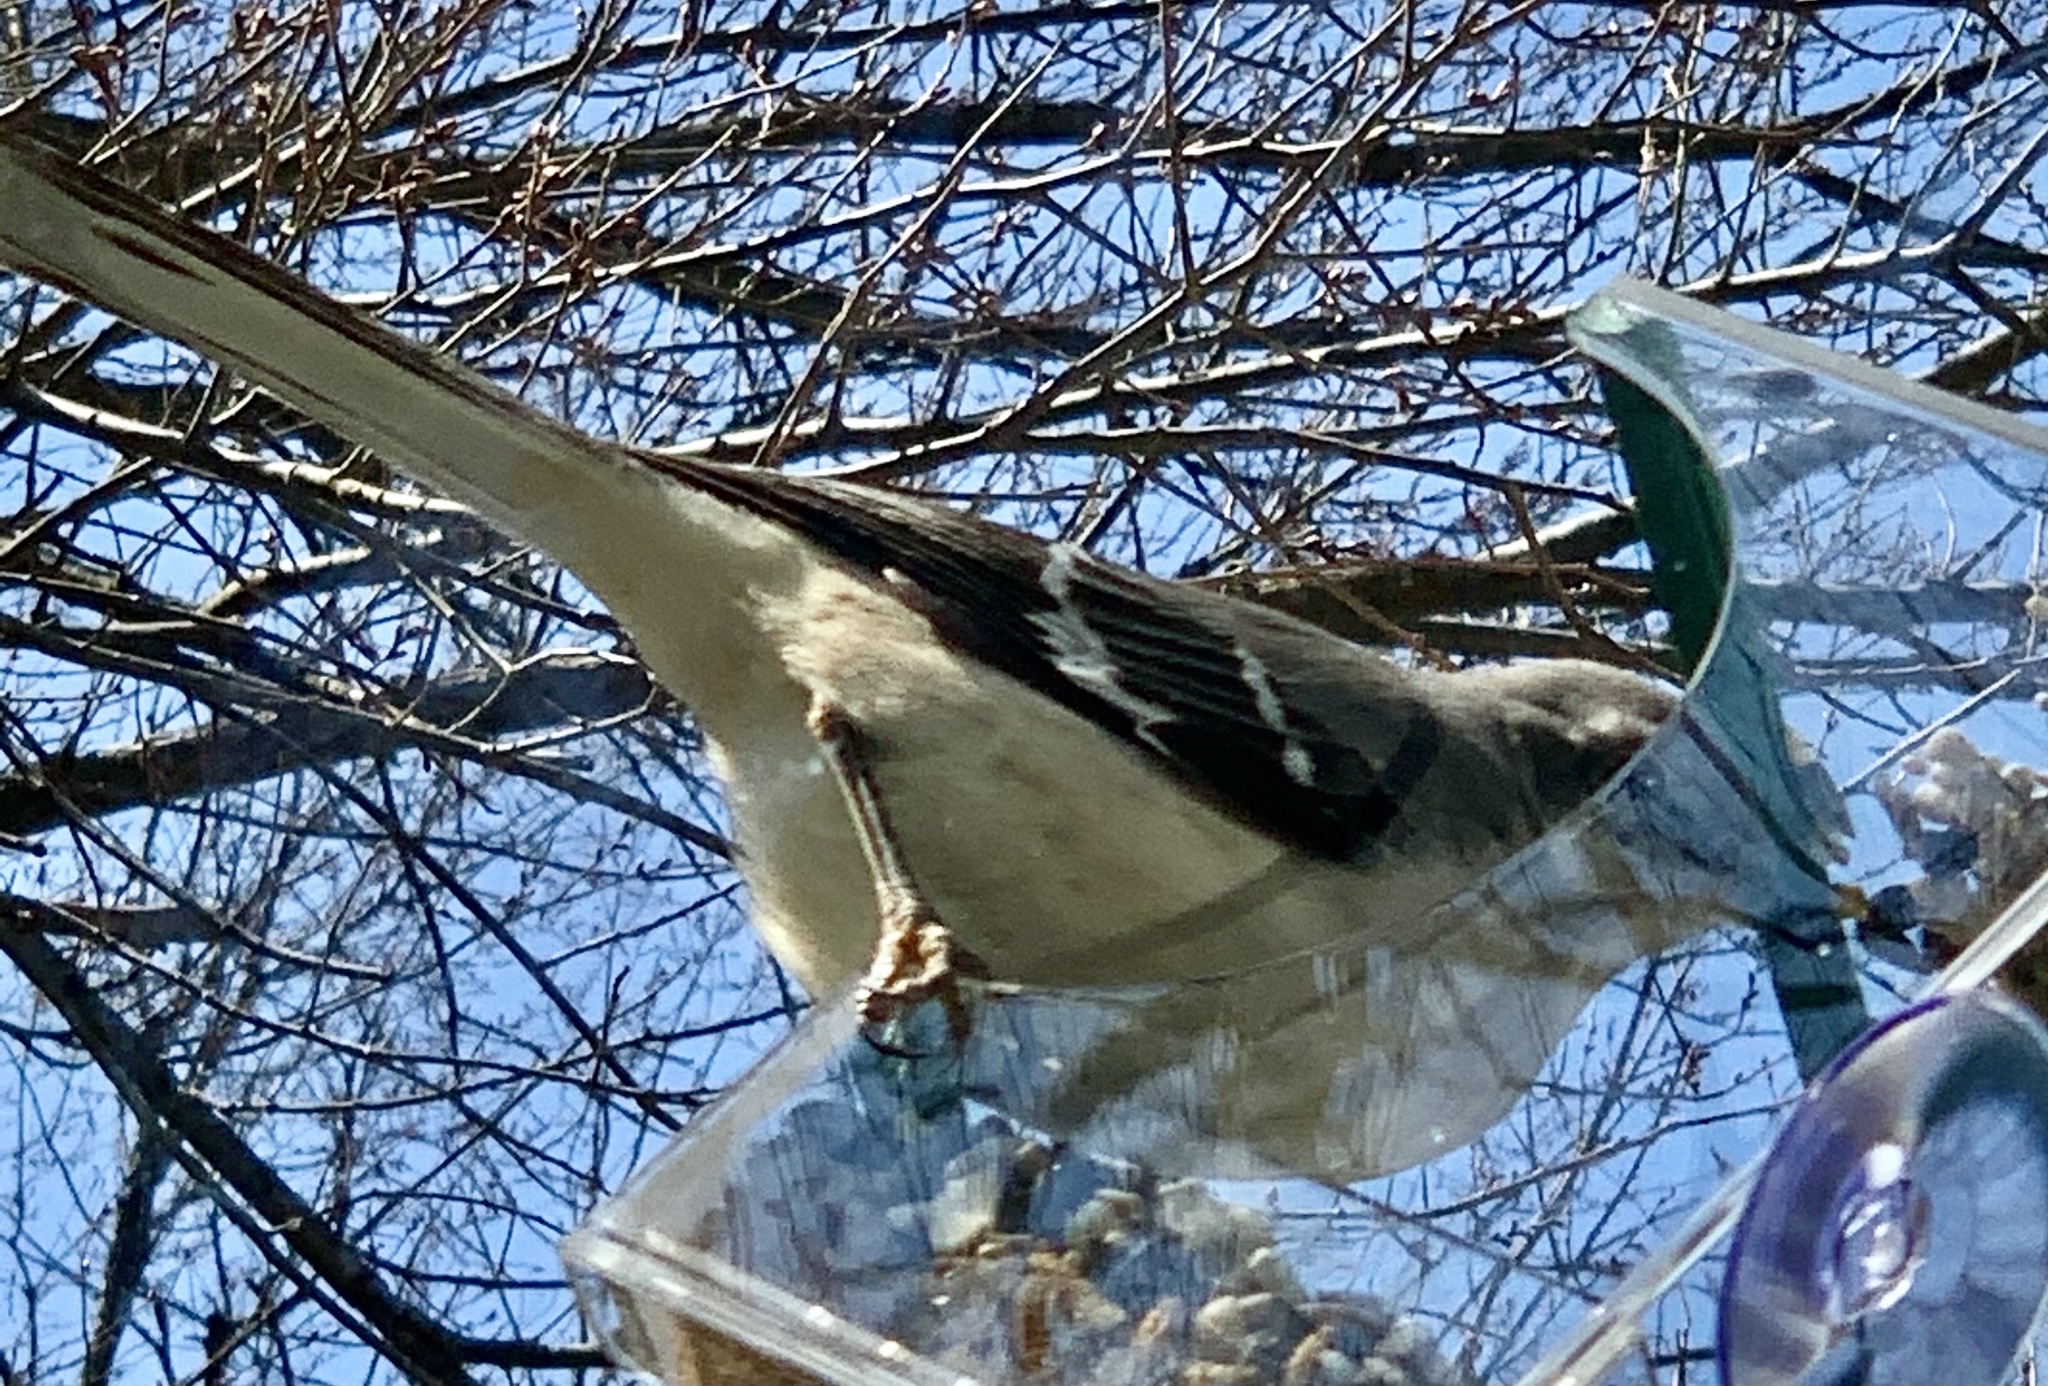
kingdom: Animalia
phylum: Chordata
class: Aves
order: Passeriformes
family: Mimidae
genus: Mimus
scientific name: Mimus polyglottos
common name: Northern mockingbird
